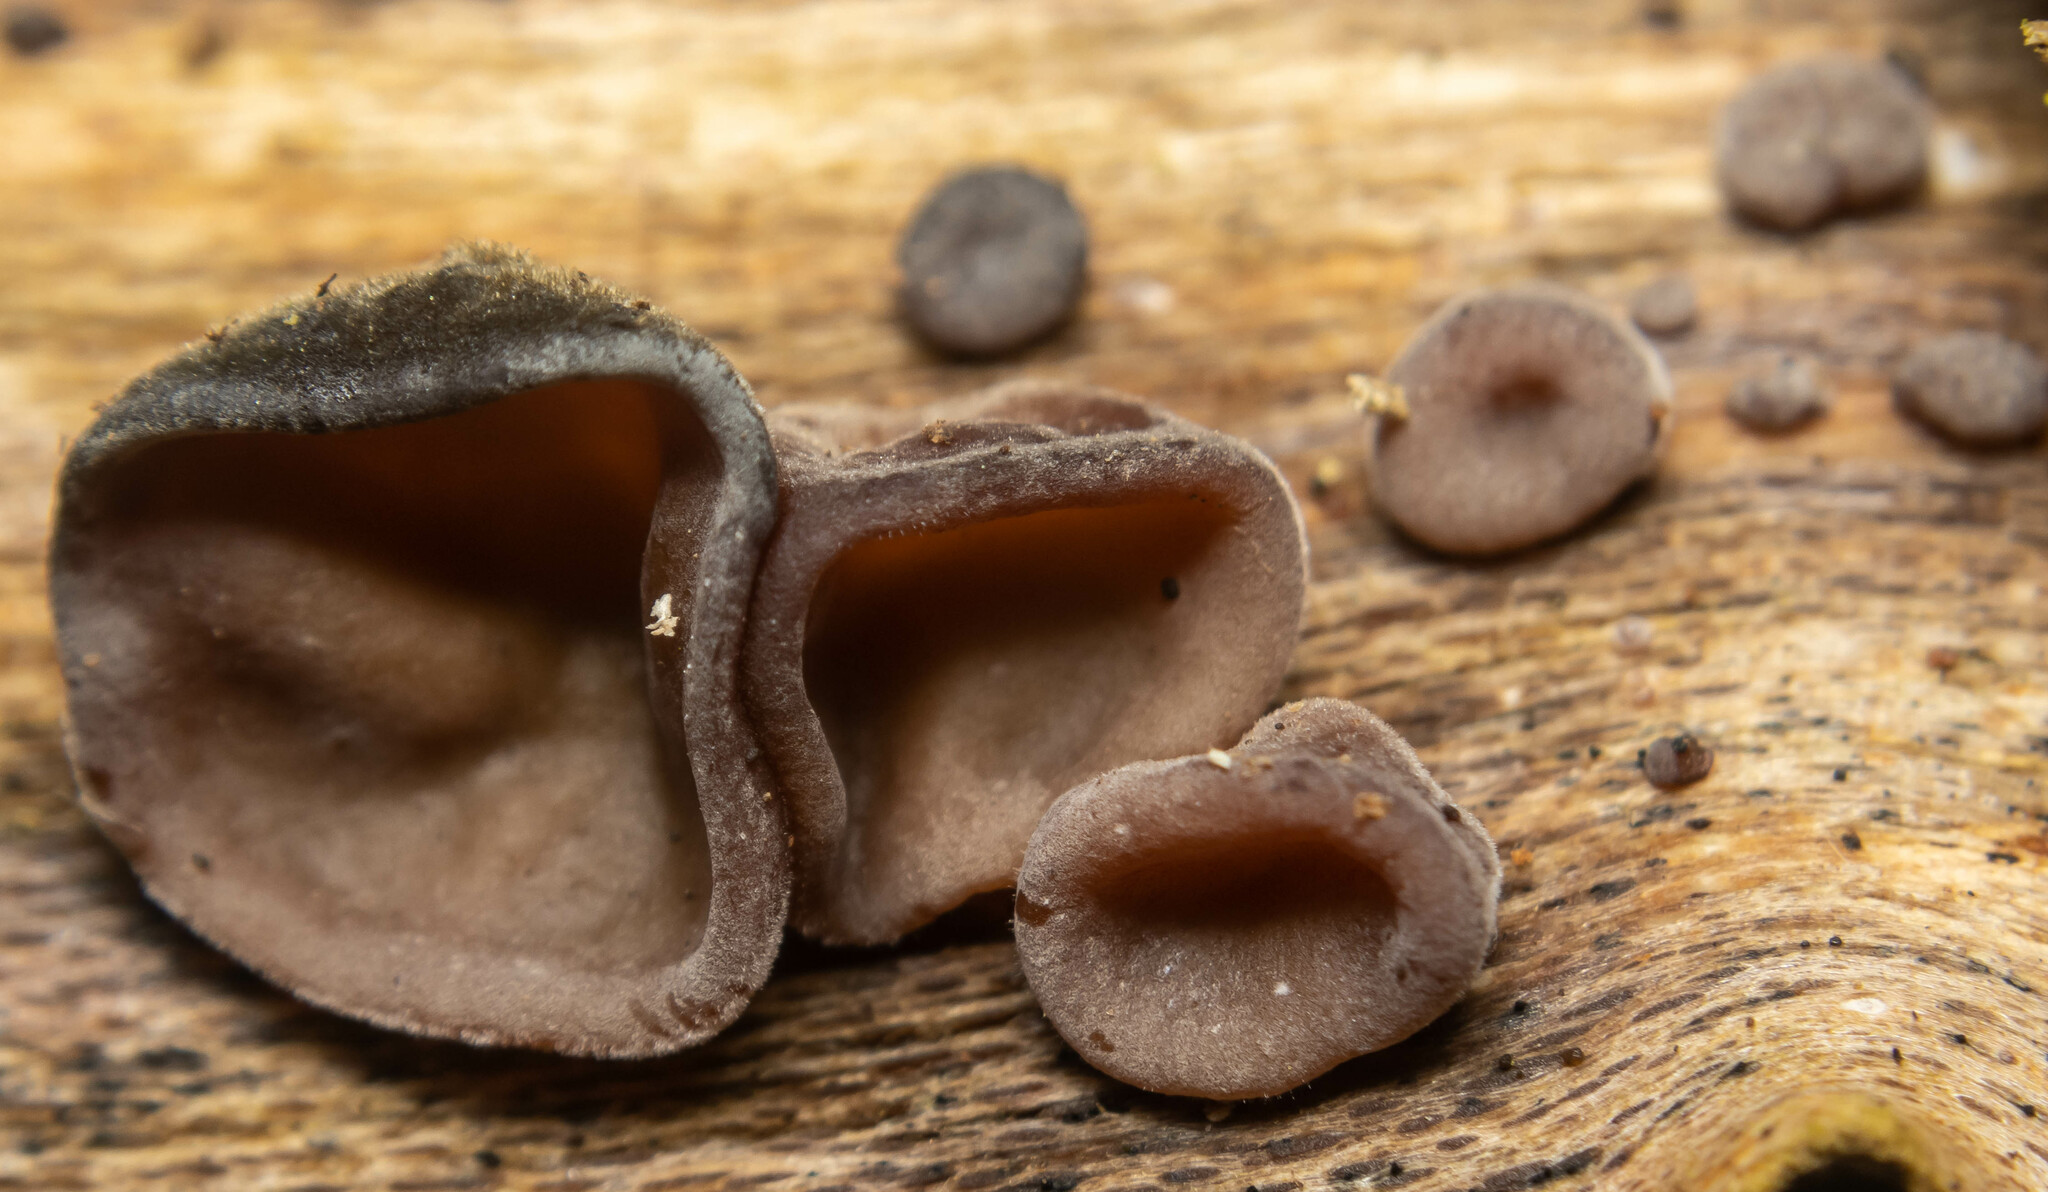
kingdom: Fungi
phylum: Basidiomycota
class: Agaricomycetes
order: Auriculariales
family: Auriculariaceae
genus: Auricularia
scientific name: Auricularia auricula-judae
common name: Jelly ear
